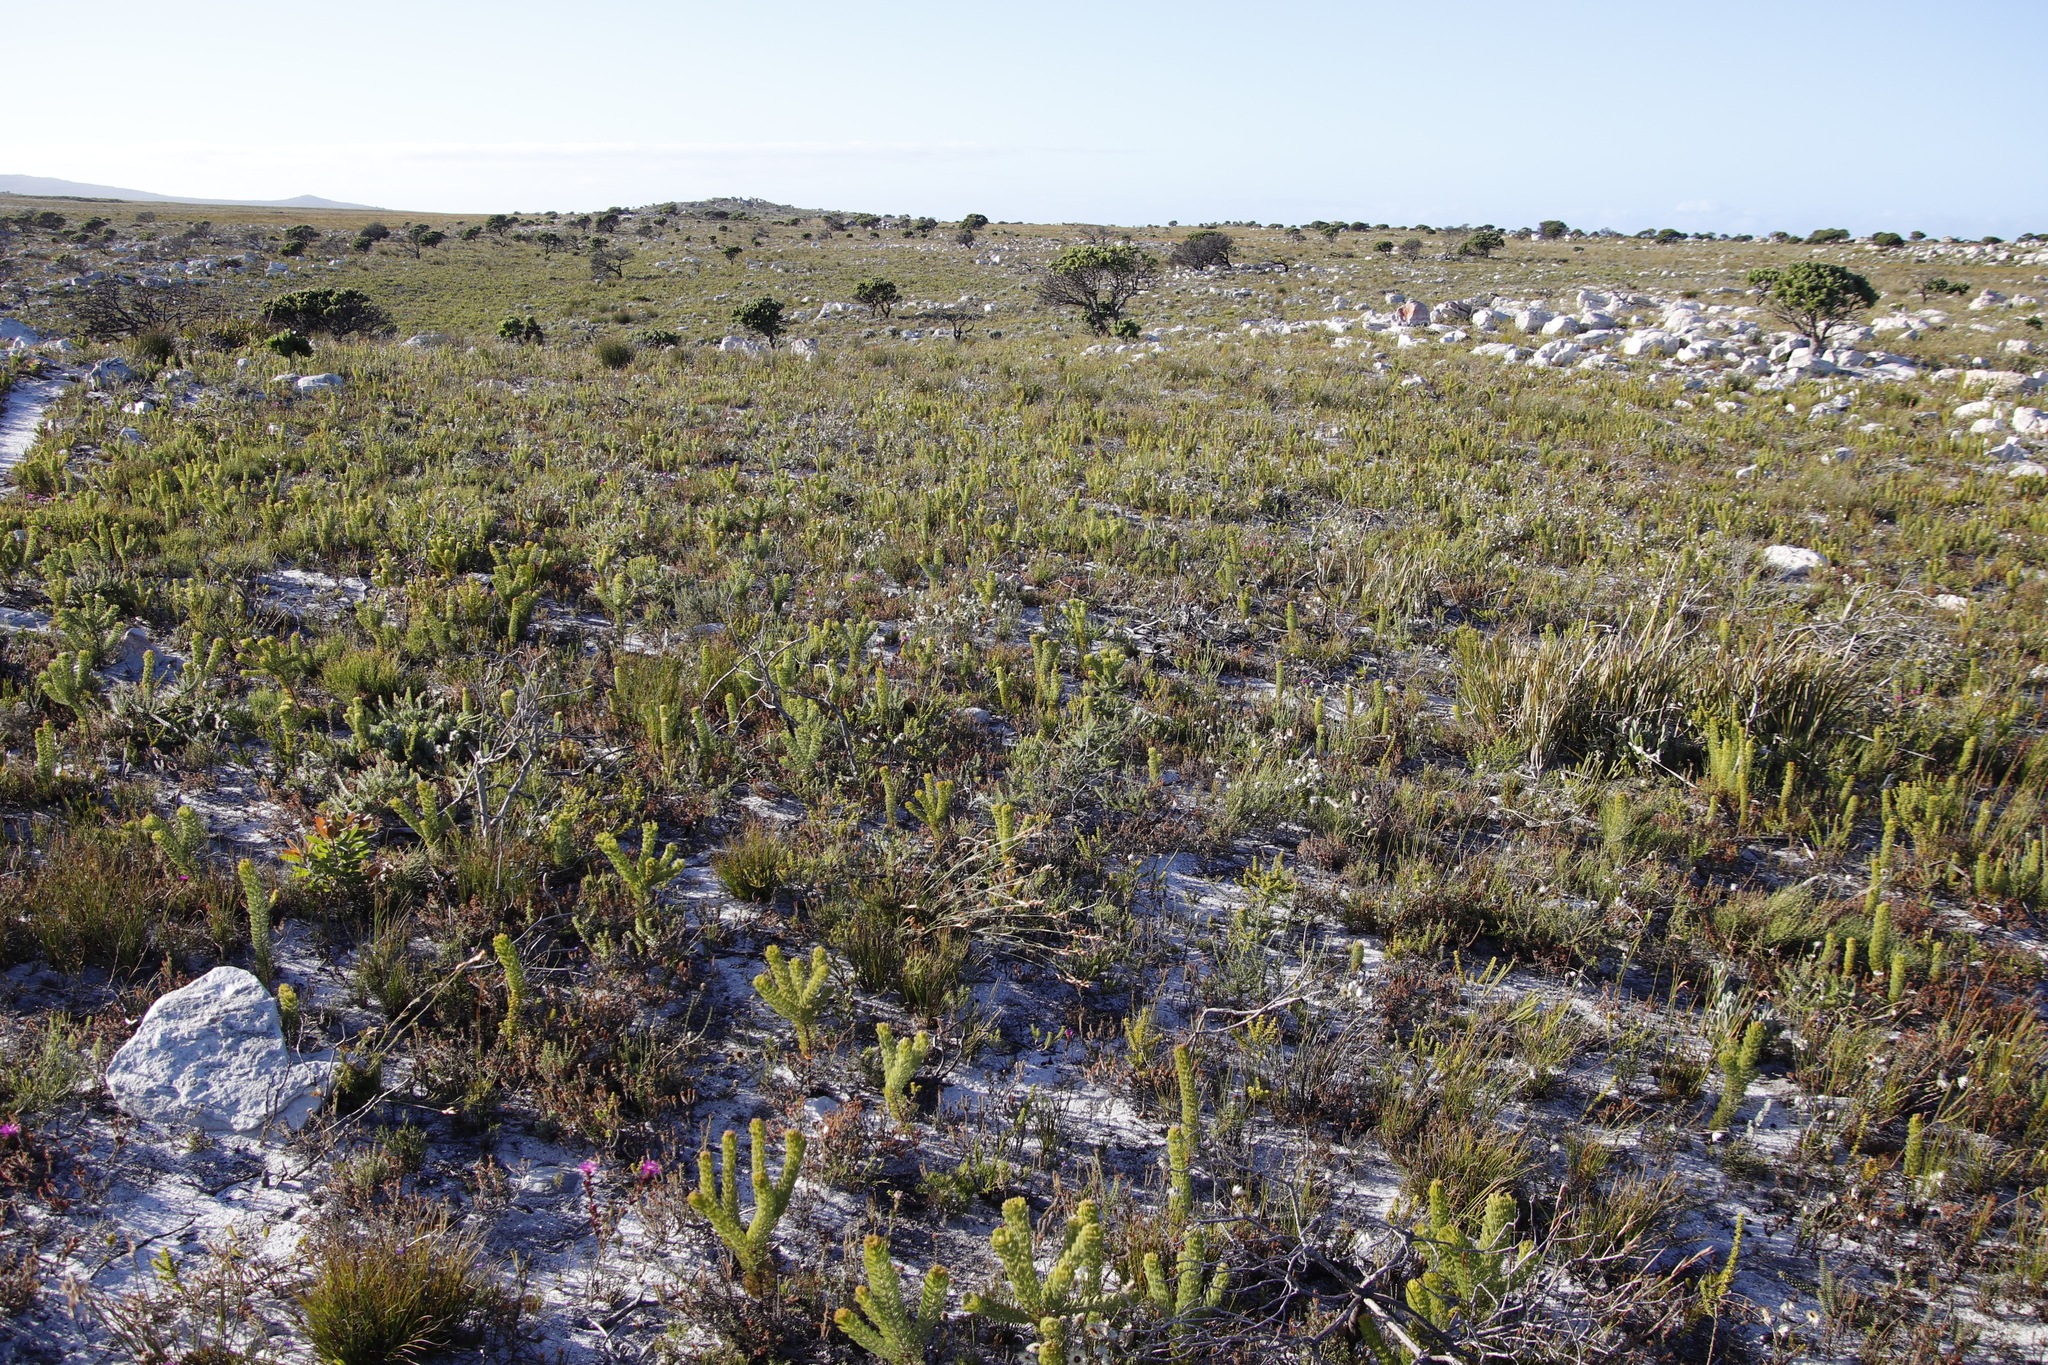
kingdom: Plantae
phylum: Tracheophyta
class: Magnoliopsida
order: Proteales
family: Proteaceae
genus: Serruria
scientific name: Serruria villosa
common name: Golden spiderhead
